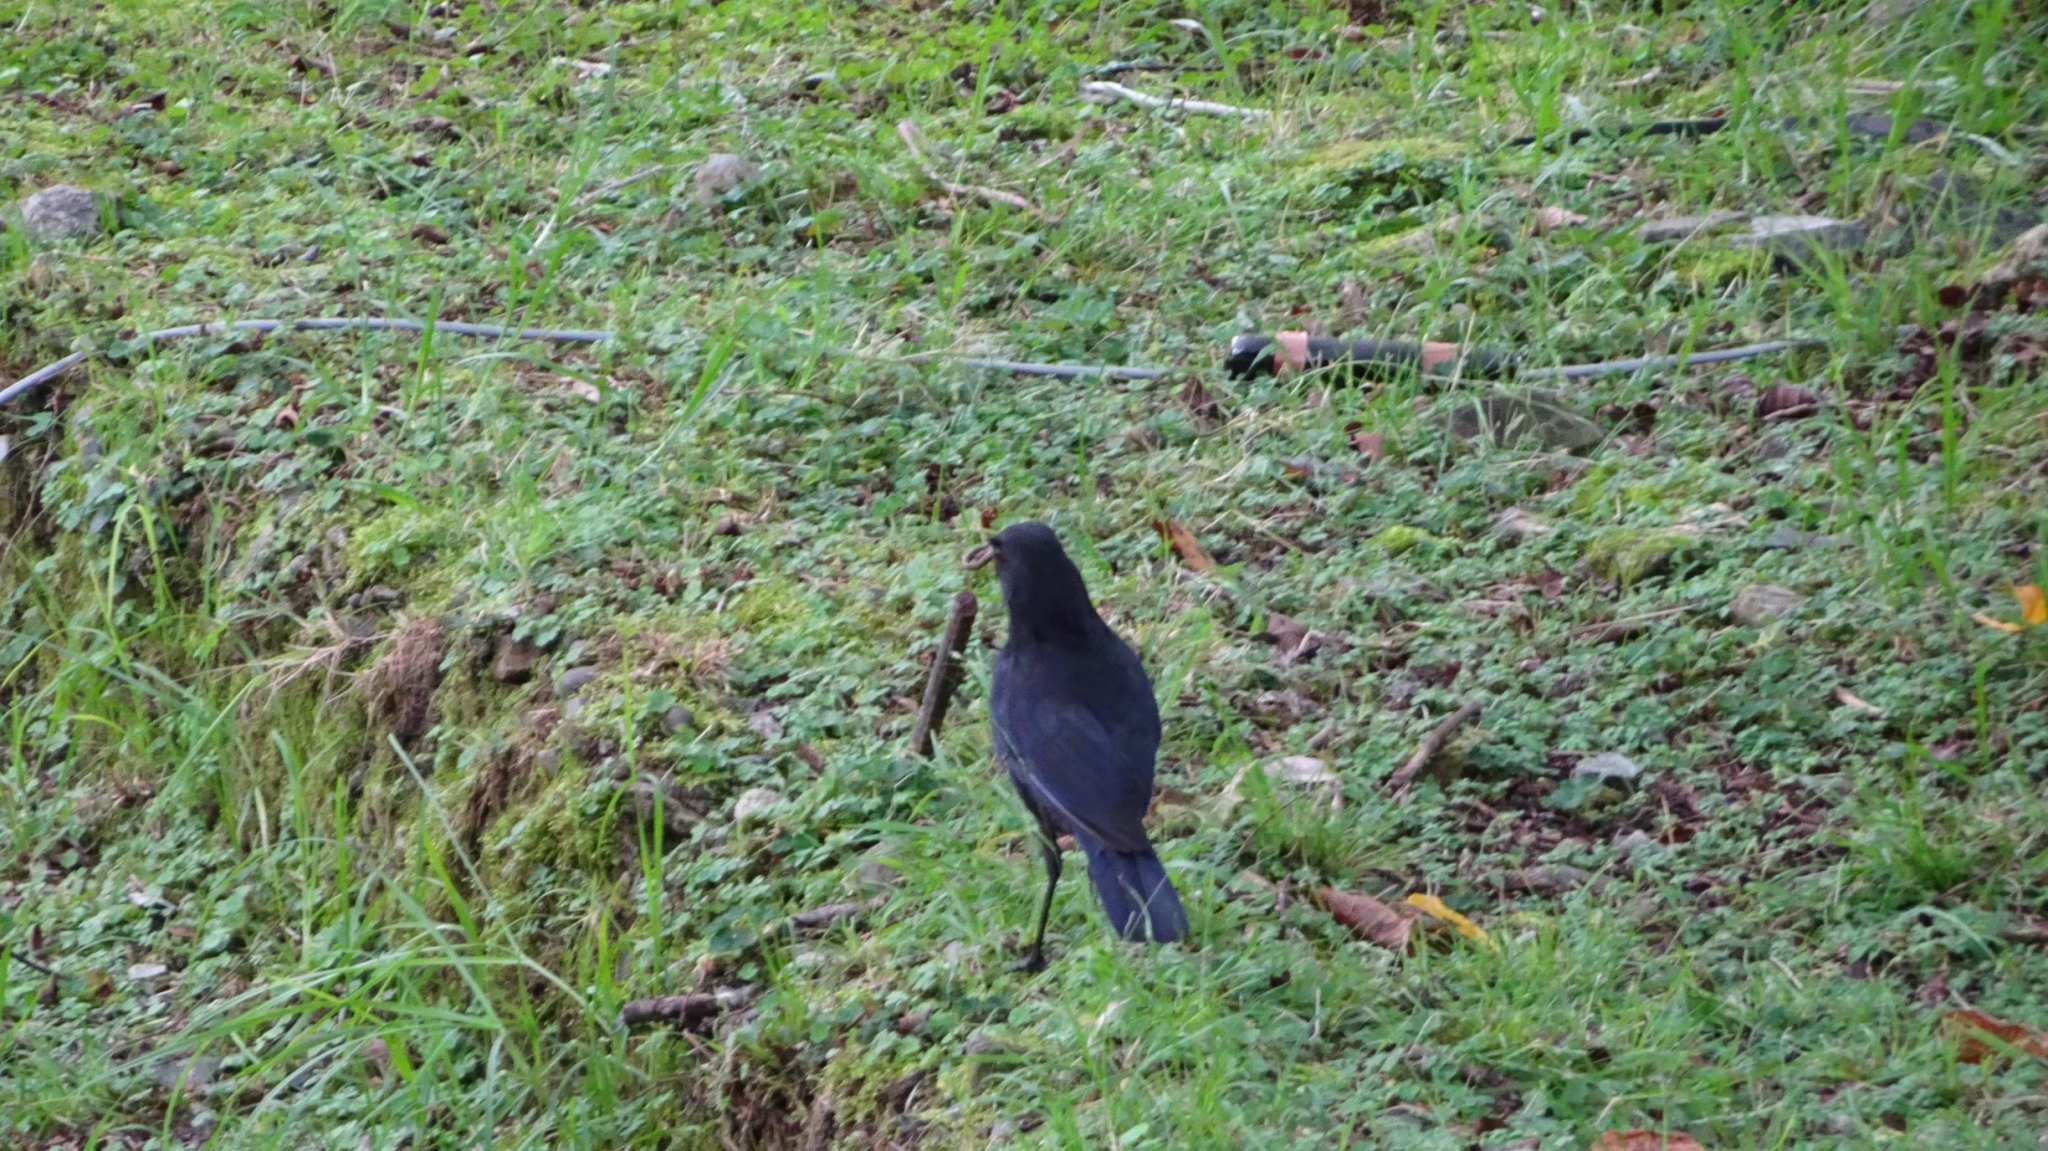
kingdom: Animalia
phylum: Chordata
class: Aves
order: Passeriformes
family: Muscicapidae
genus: Myophonus
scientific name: Myophonus insularis
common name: Taiwan whistling-thrush
